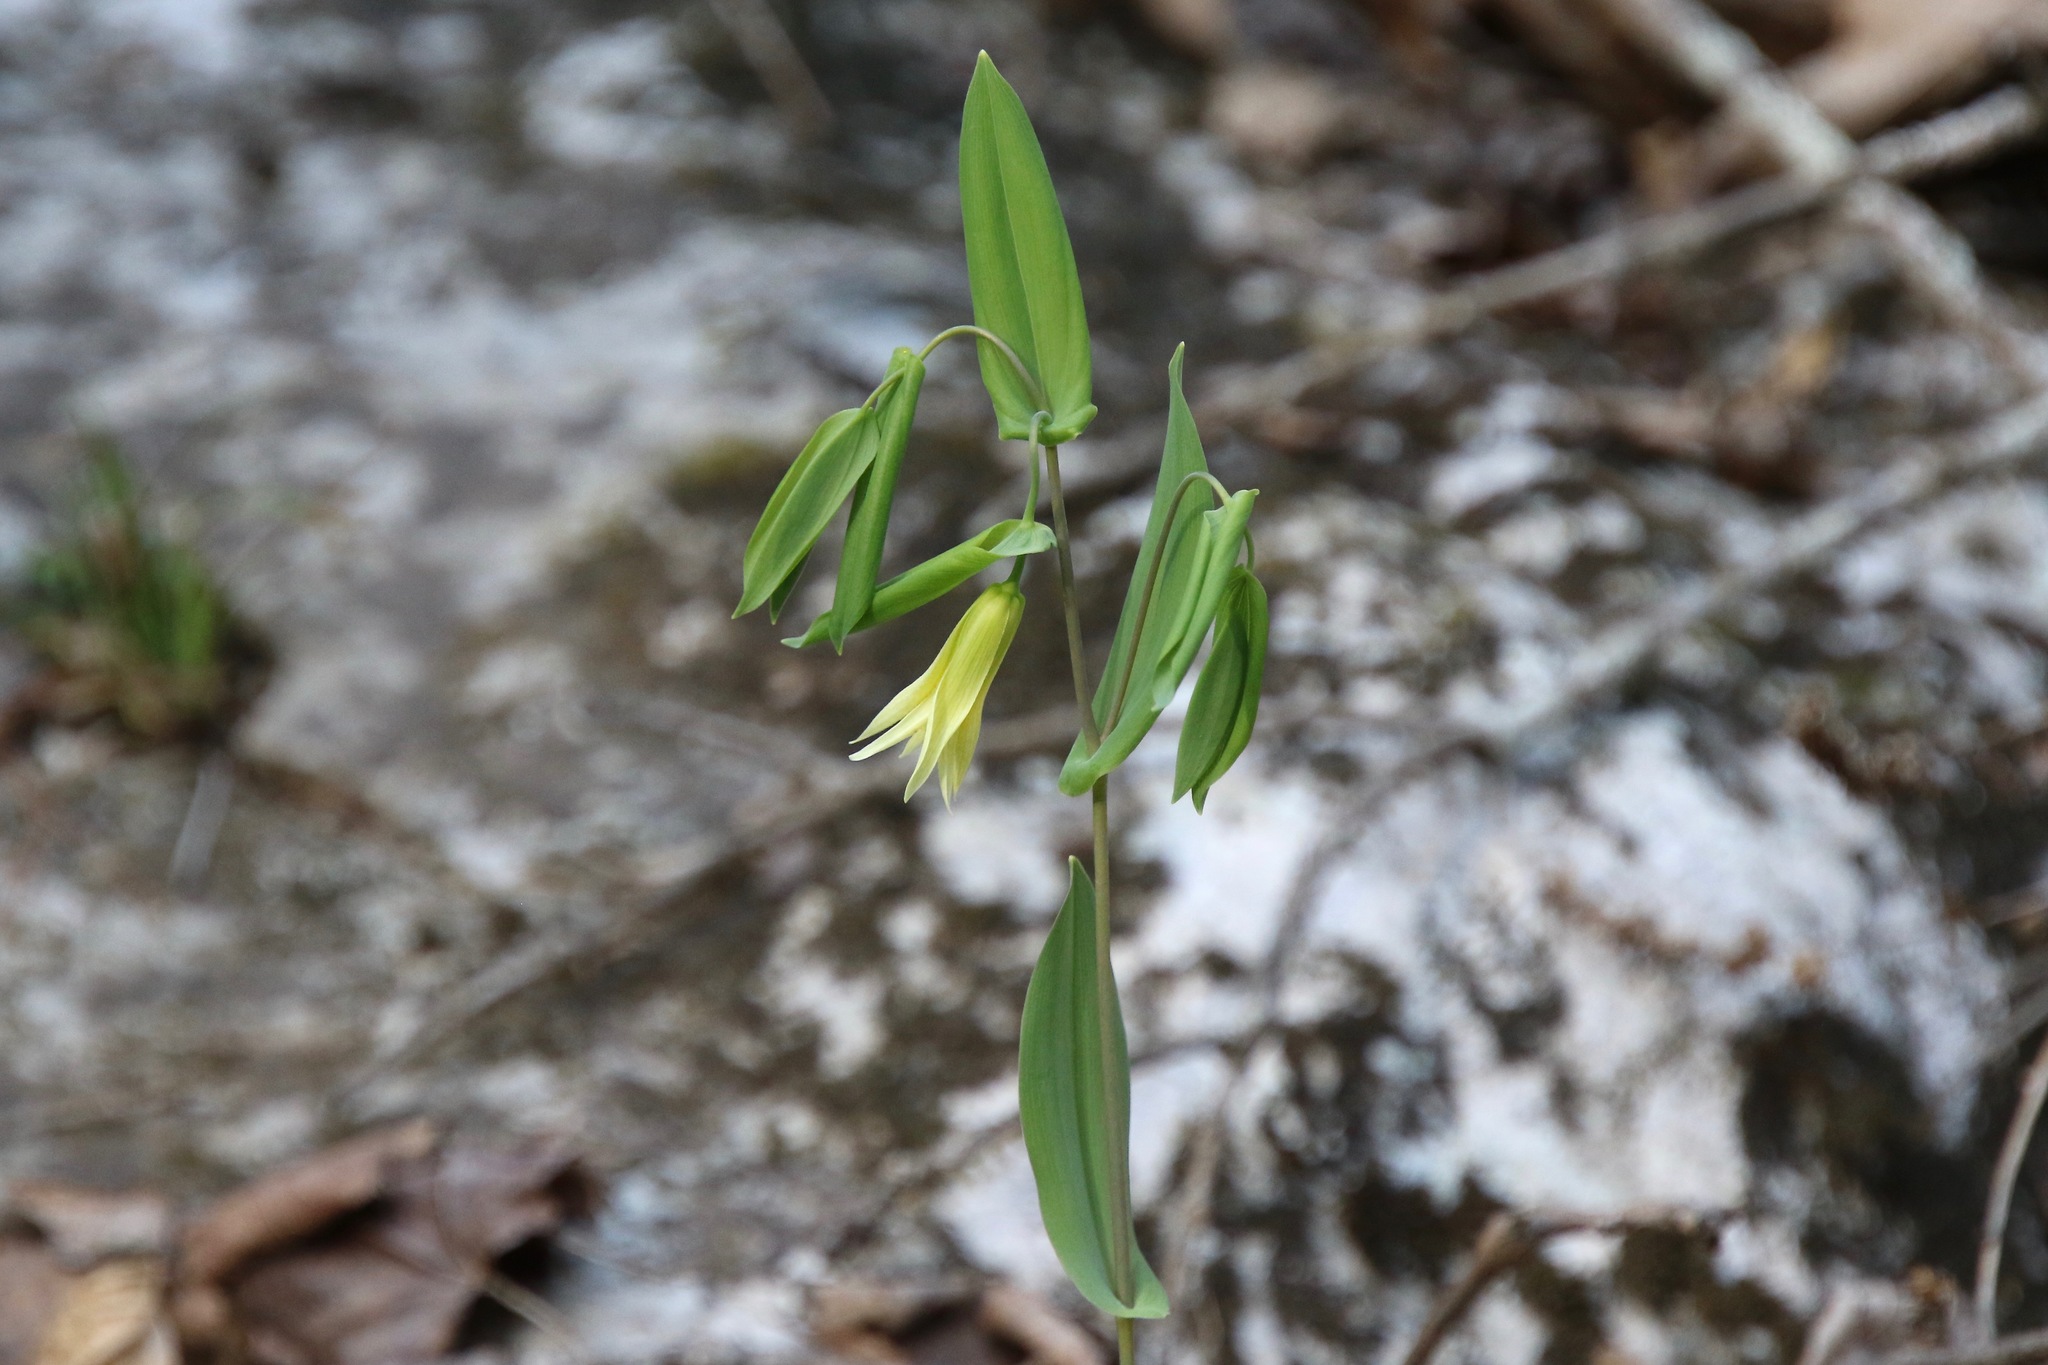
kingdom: Plantae
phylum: Tracheophyta
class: Liliopsida
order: Liliales
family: Colchicaceae
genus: Uvularia
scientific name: Uvularia perfoliata
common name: Perfoliate bellwort
